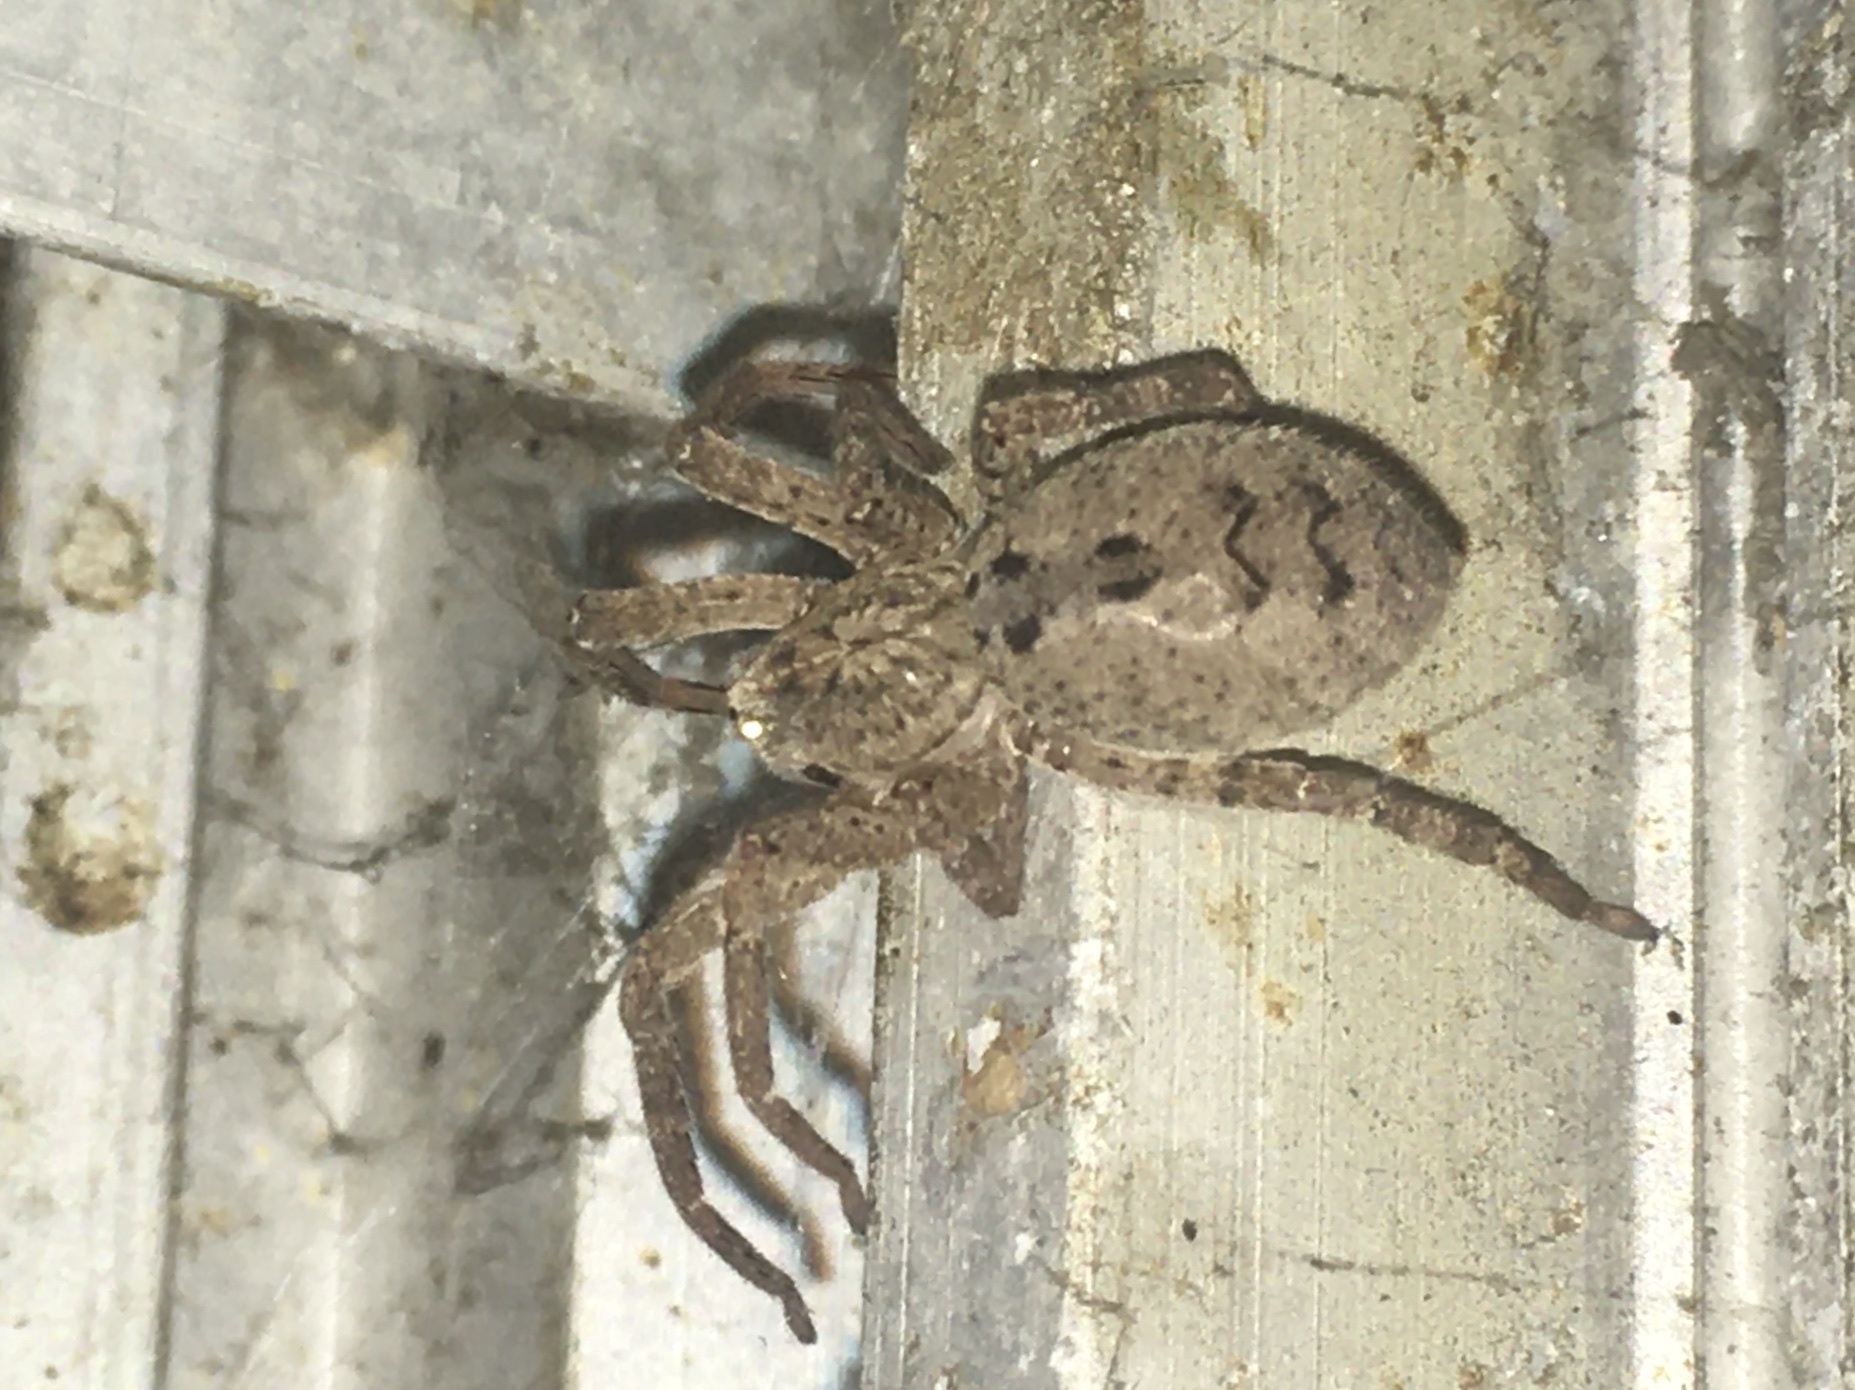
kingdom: Animalia
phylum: Arthropoda
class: Arachnida
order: Araneae
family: Zoropsidae
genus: Zoropsis
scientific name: Zoropsis spinimana
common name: Zoropsid spider
